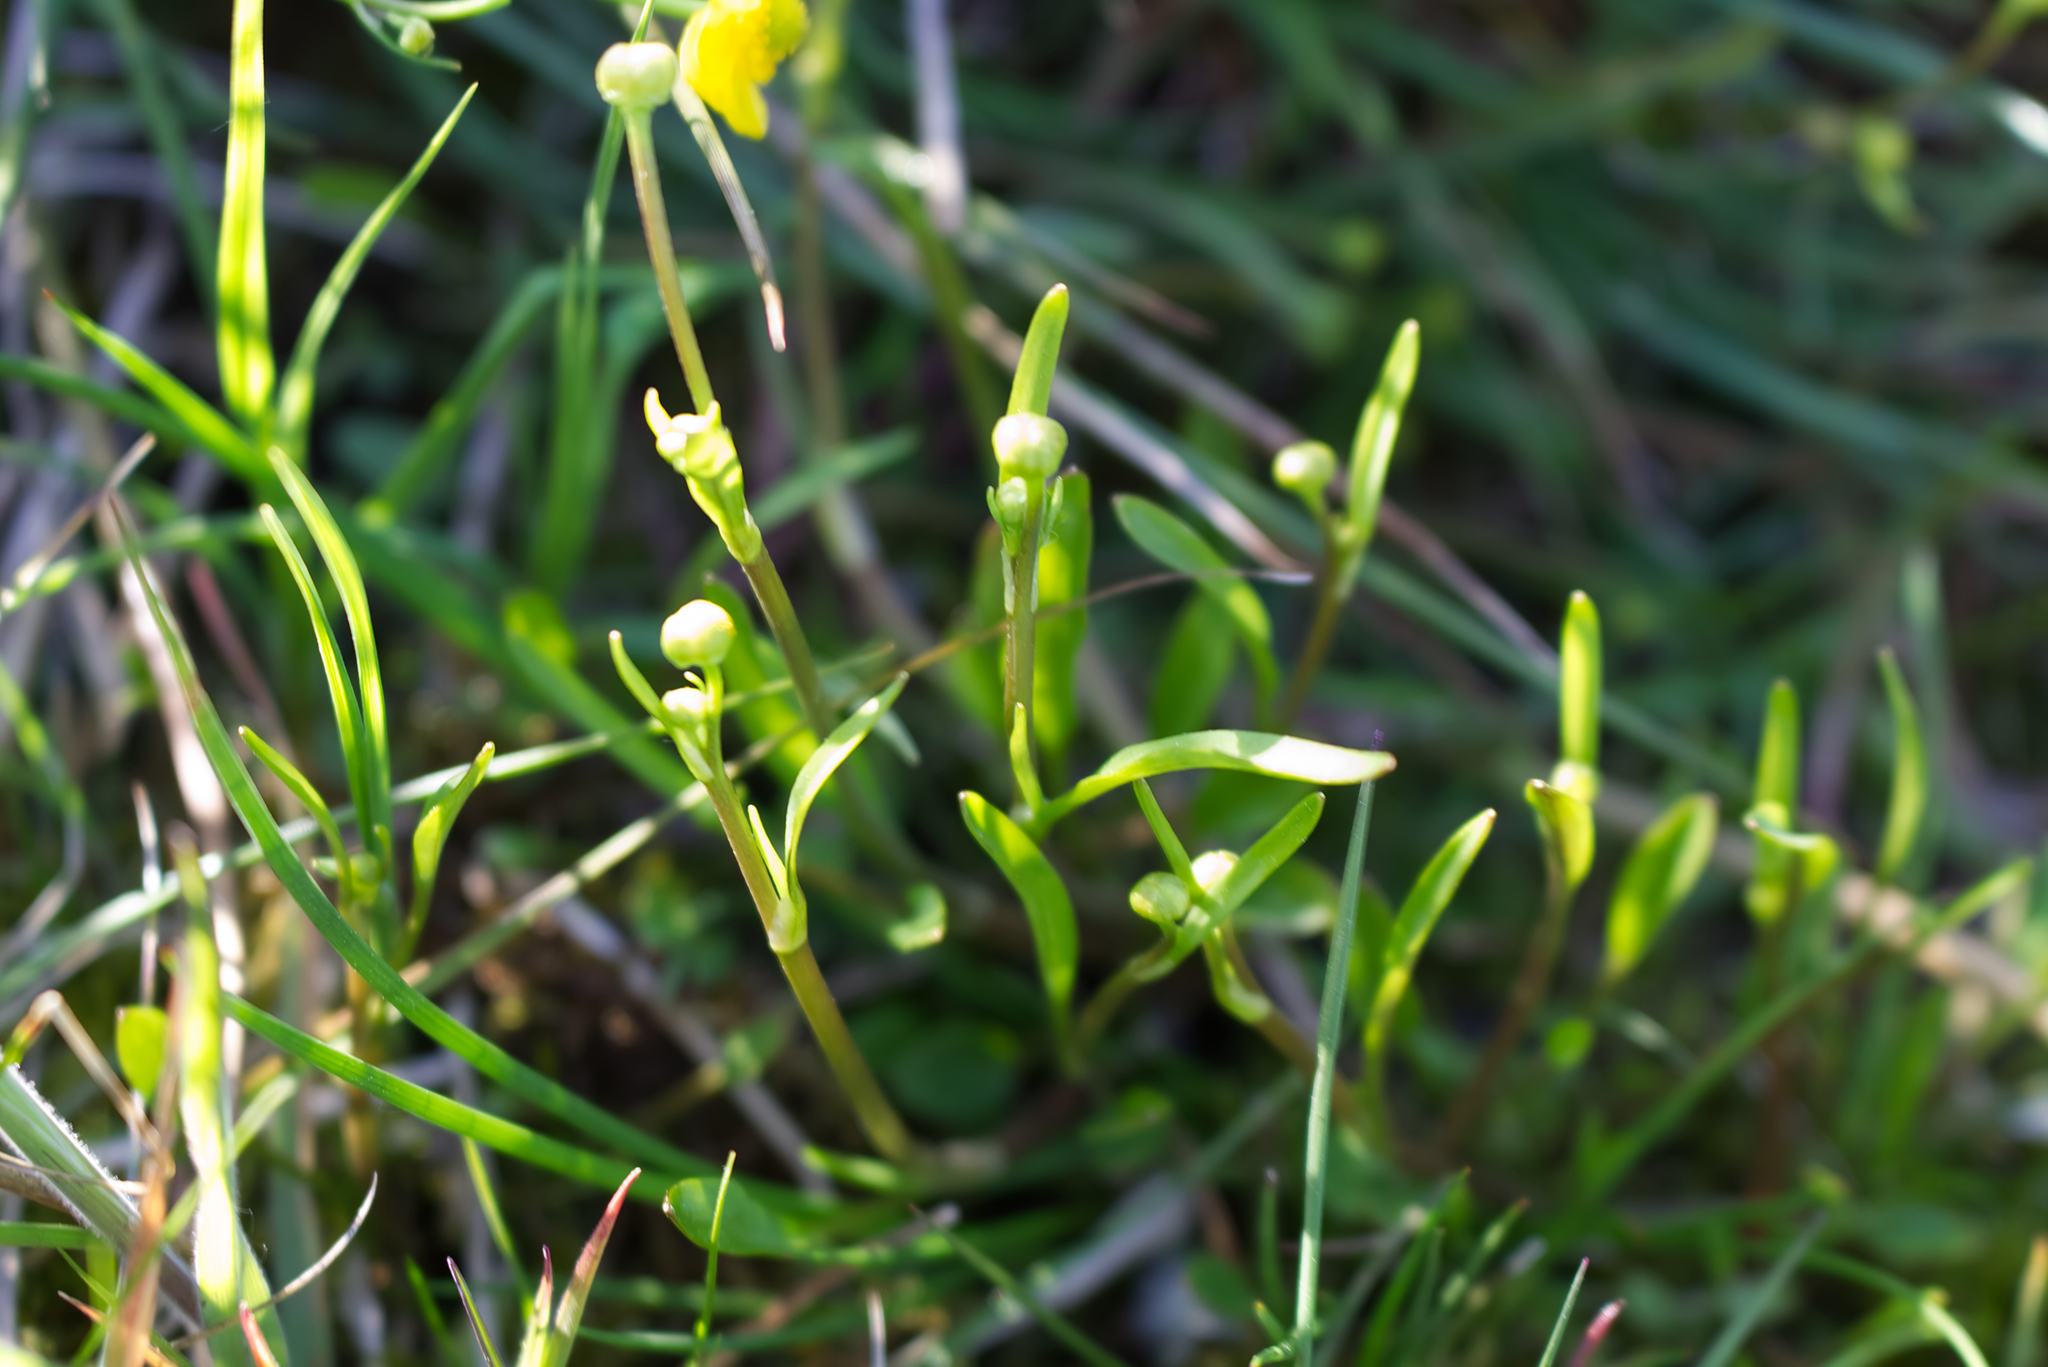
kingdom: Plantae
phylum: Tracheophyta
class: Magnoliopsida
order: Ranunculales
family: Ranunculaceae
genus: Ranunculus
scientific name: Ranunculus flammula
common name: Lesser spearwort
